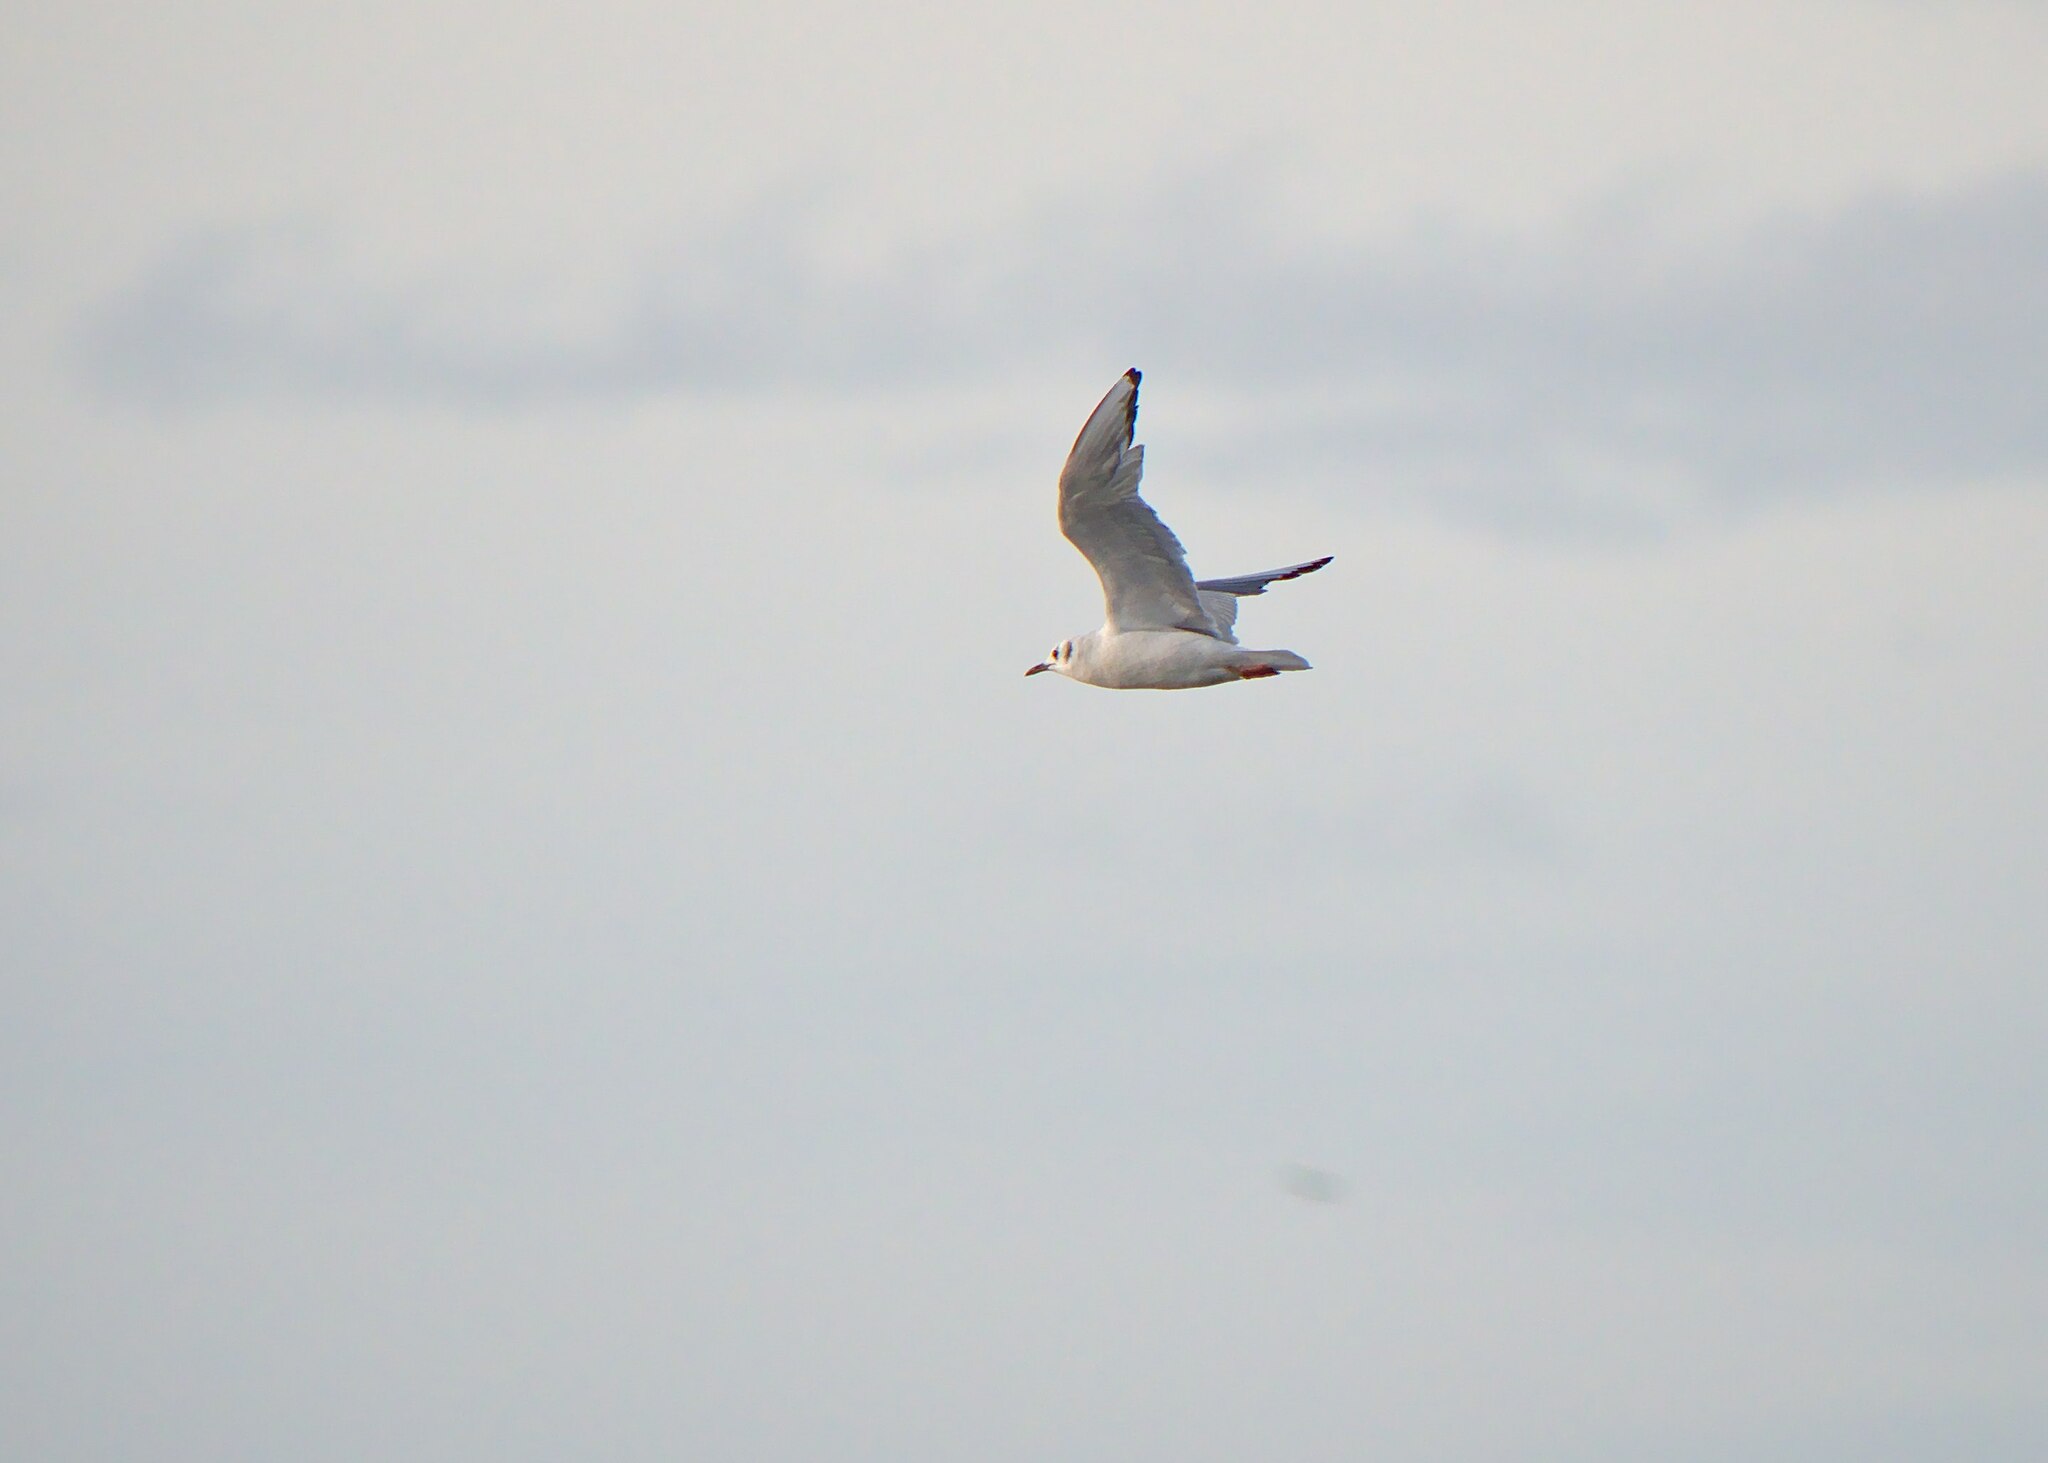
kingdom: Animalia
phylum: Chordata
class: Aves
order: Charadriiformes
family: Laridae
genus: Chroicocephalus
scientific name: Chroicocephalus philadelphia
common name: Bonaparte's gull
